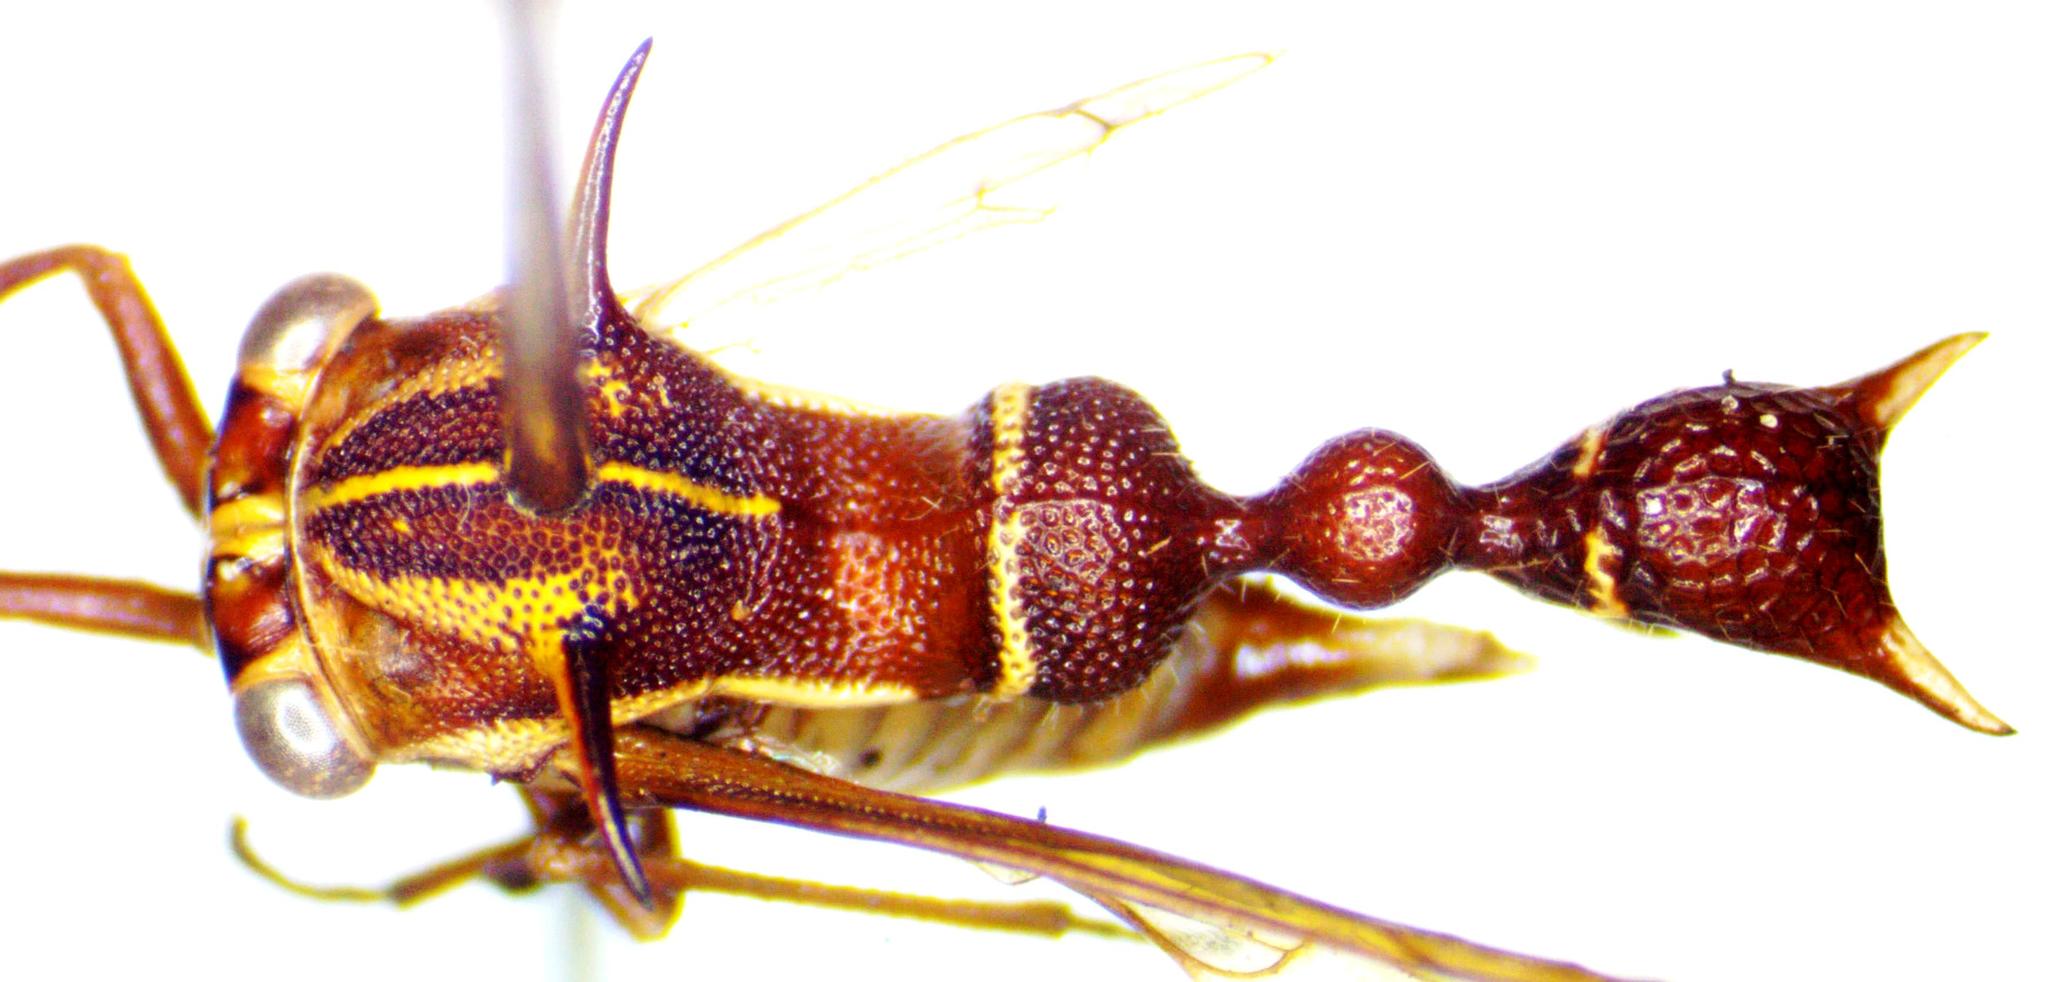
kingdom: Animalia
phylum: Arthropoda
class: Insecta
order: Hemiptera
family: Membracidae
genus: Heteronotus
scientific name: Heteronotus trinodosus
